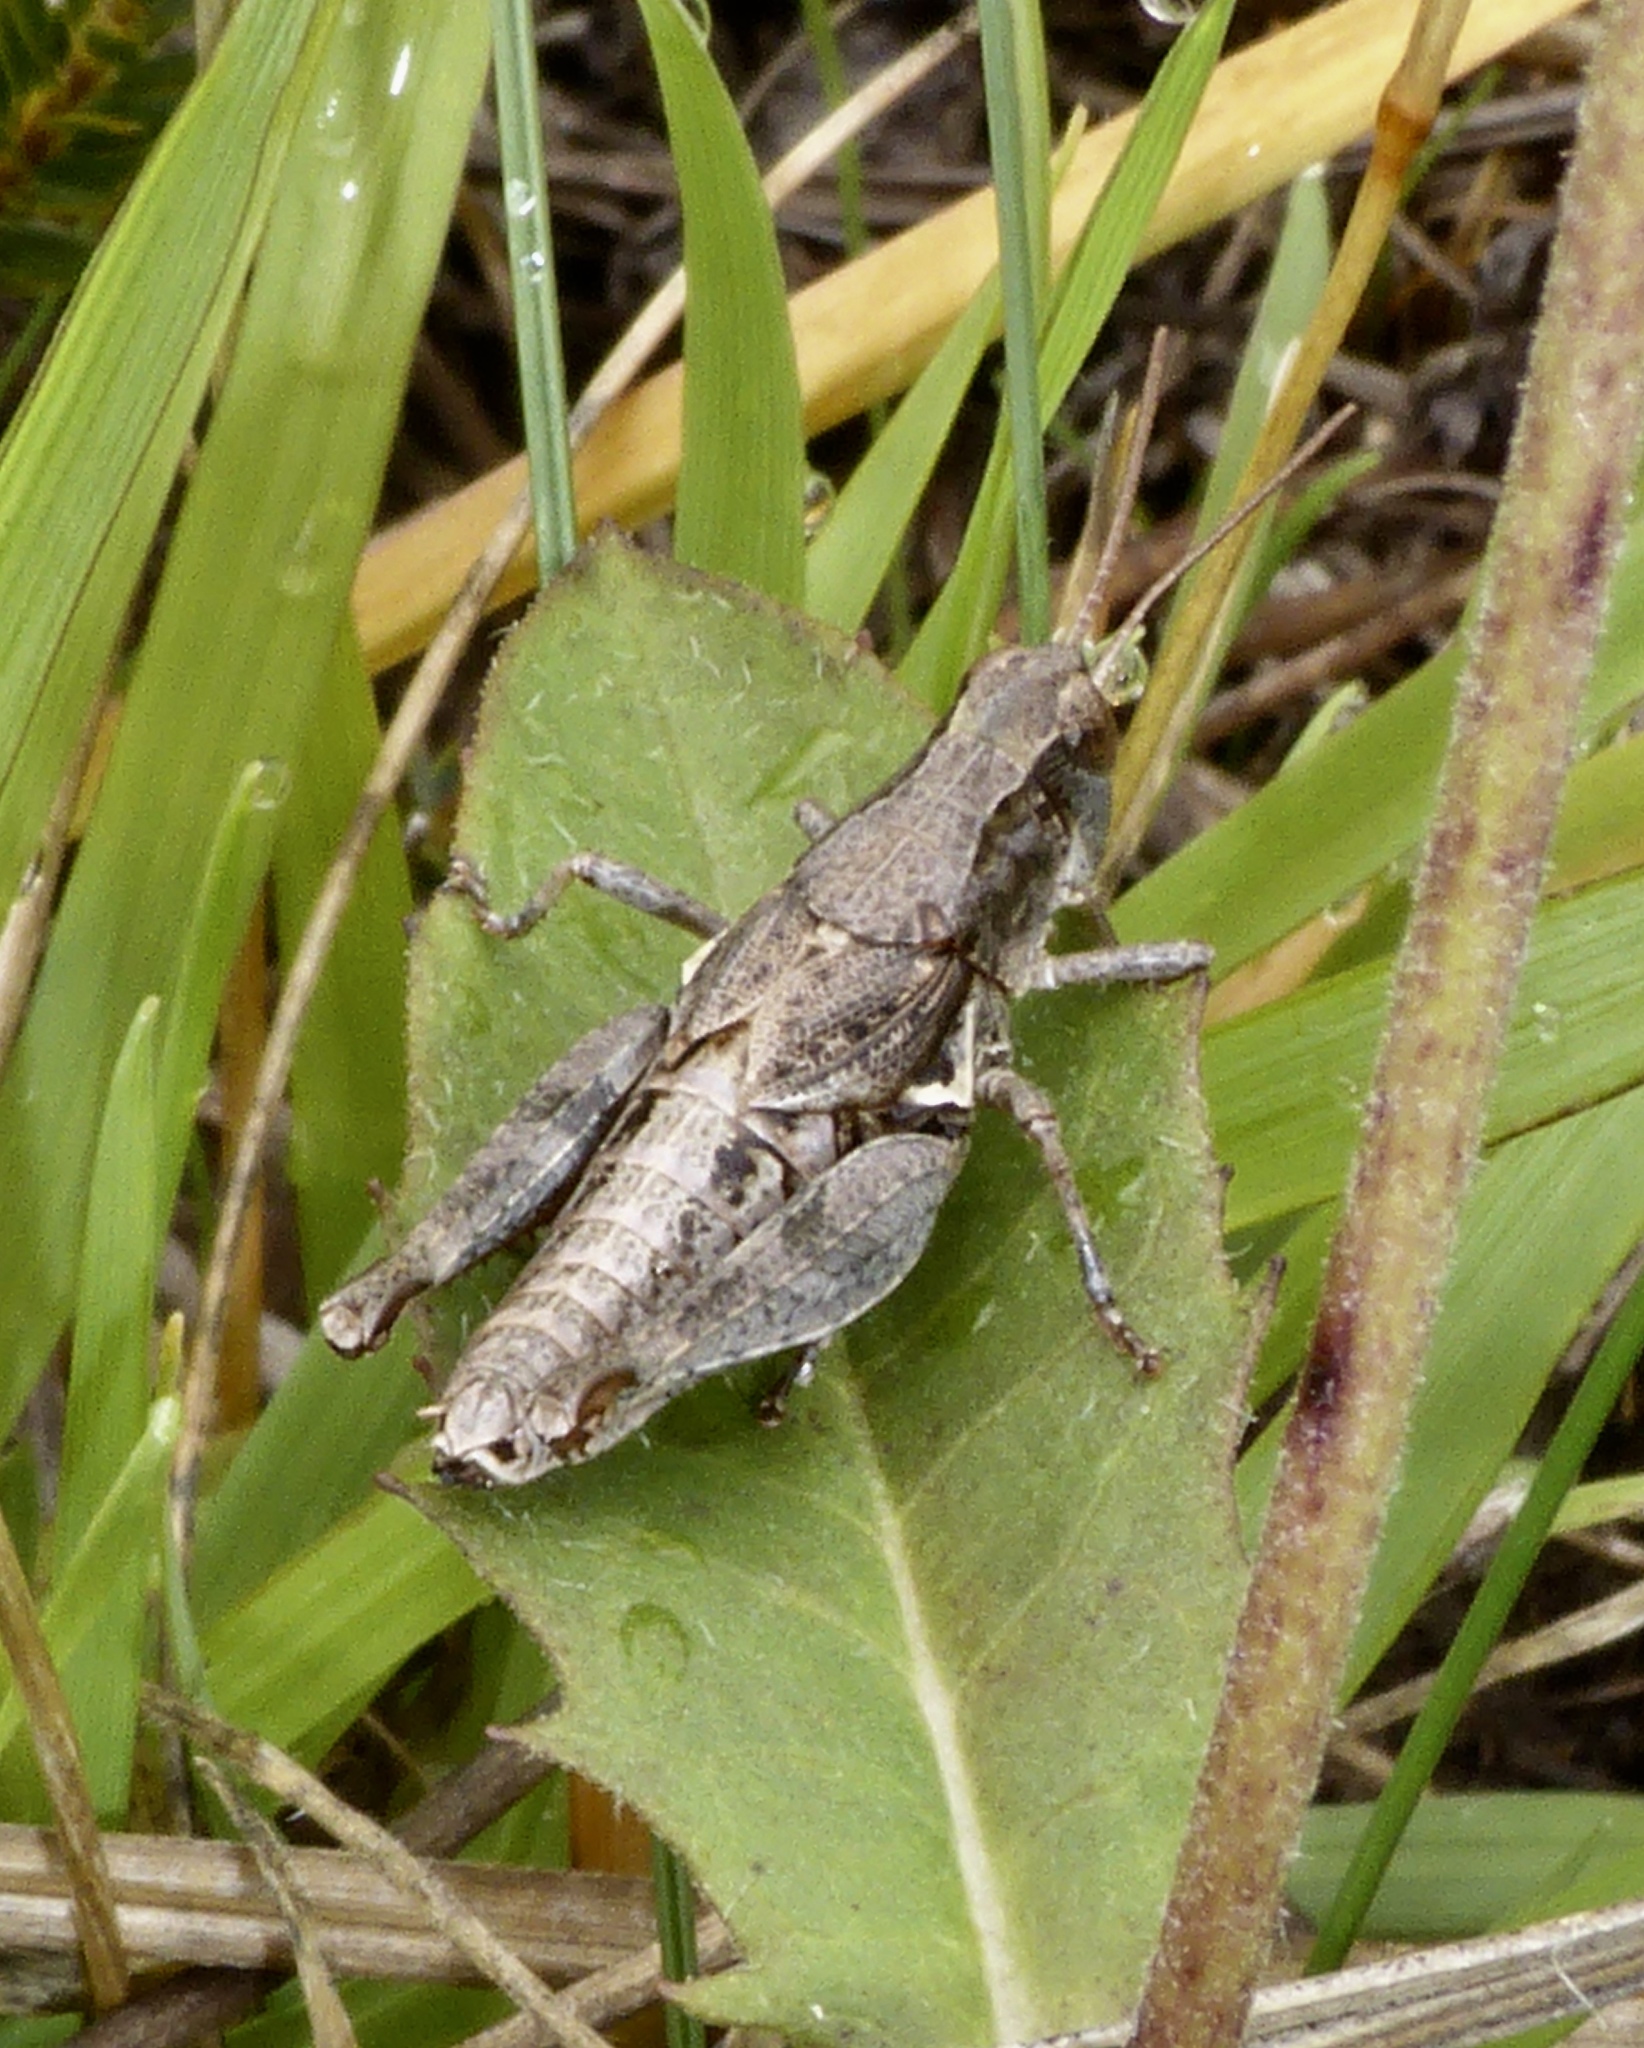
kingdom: Animalia
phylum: Arthropoda
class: Insecta
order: Orthoptera
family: Acrididae
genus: Phaulacridium
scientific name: Phaulacridium marginale
